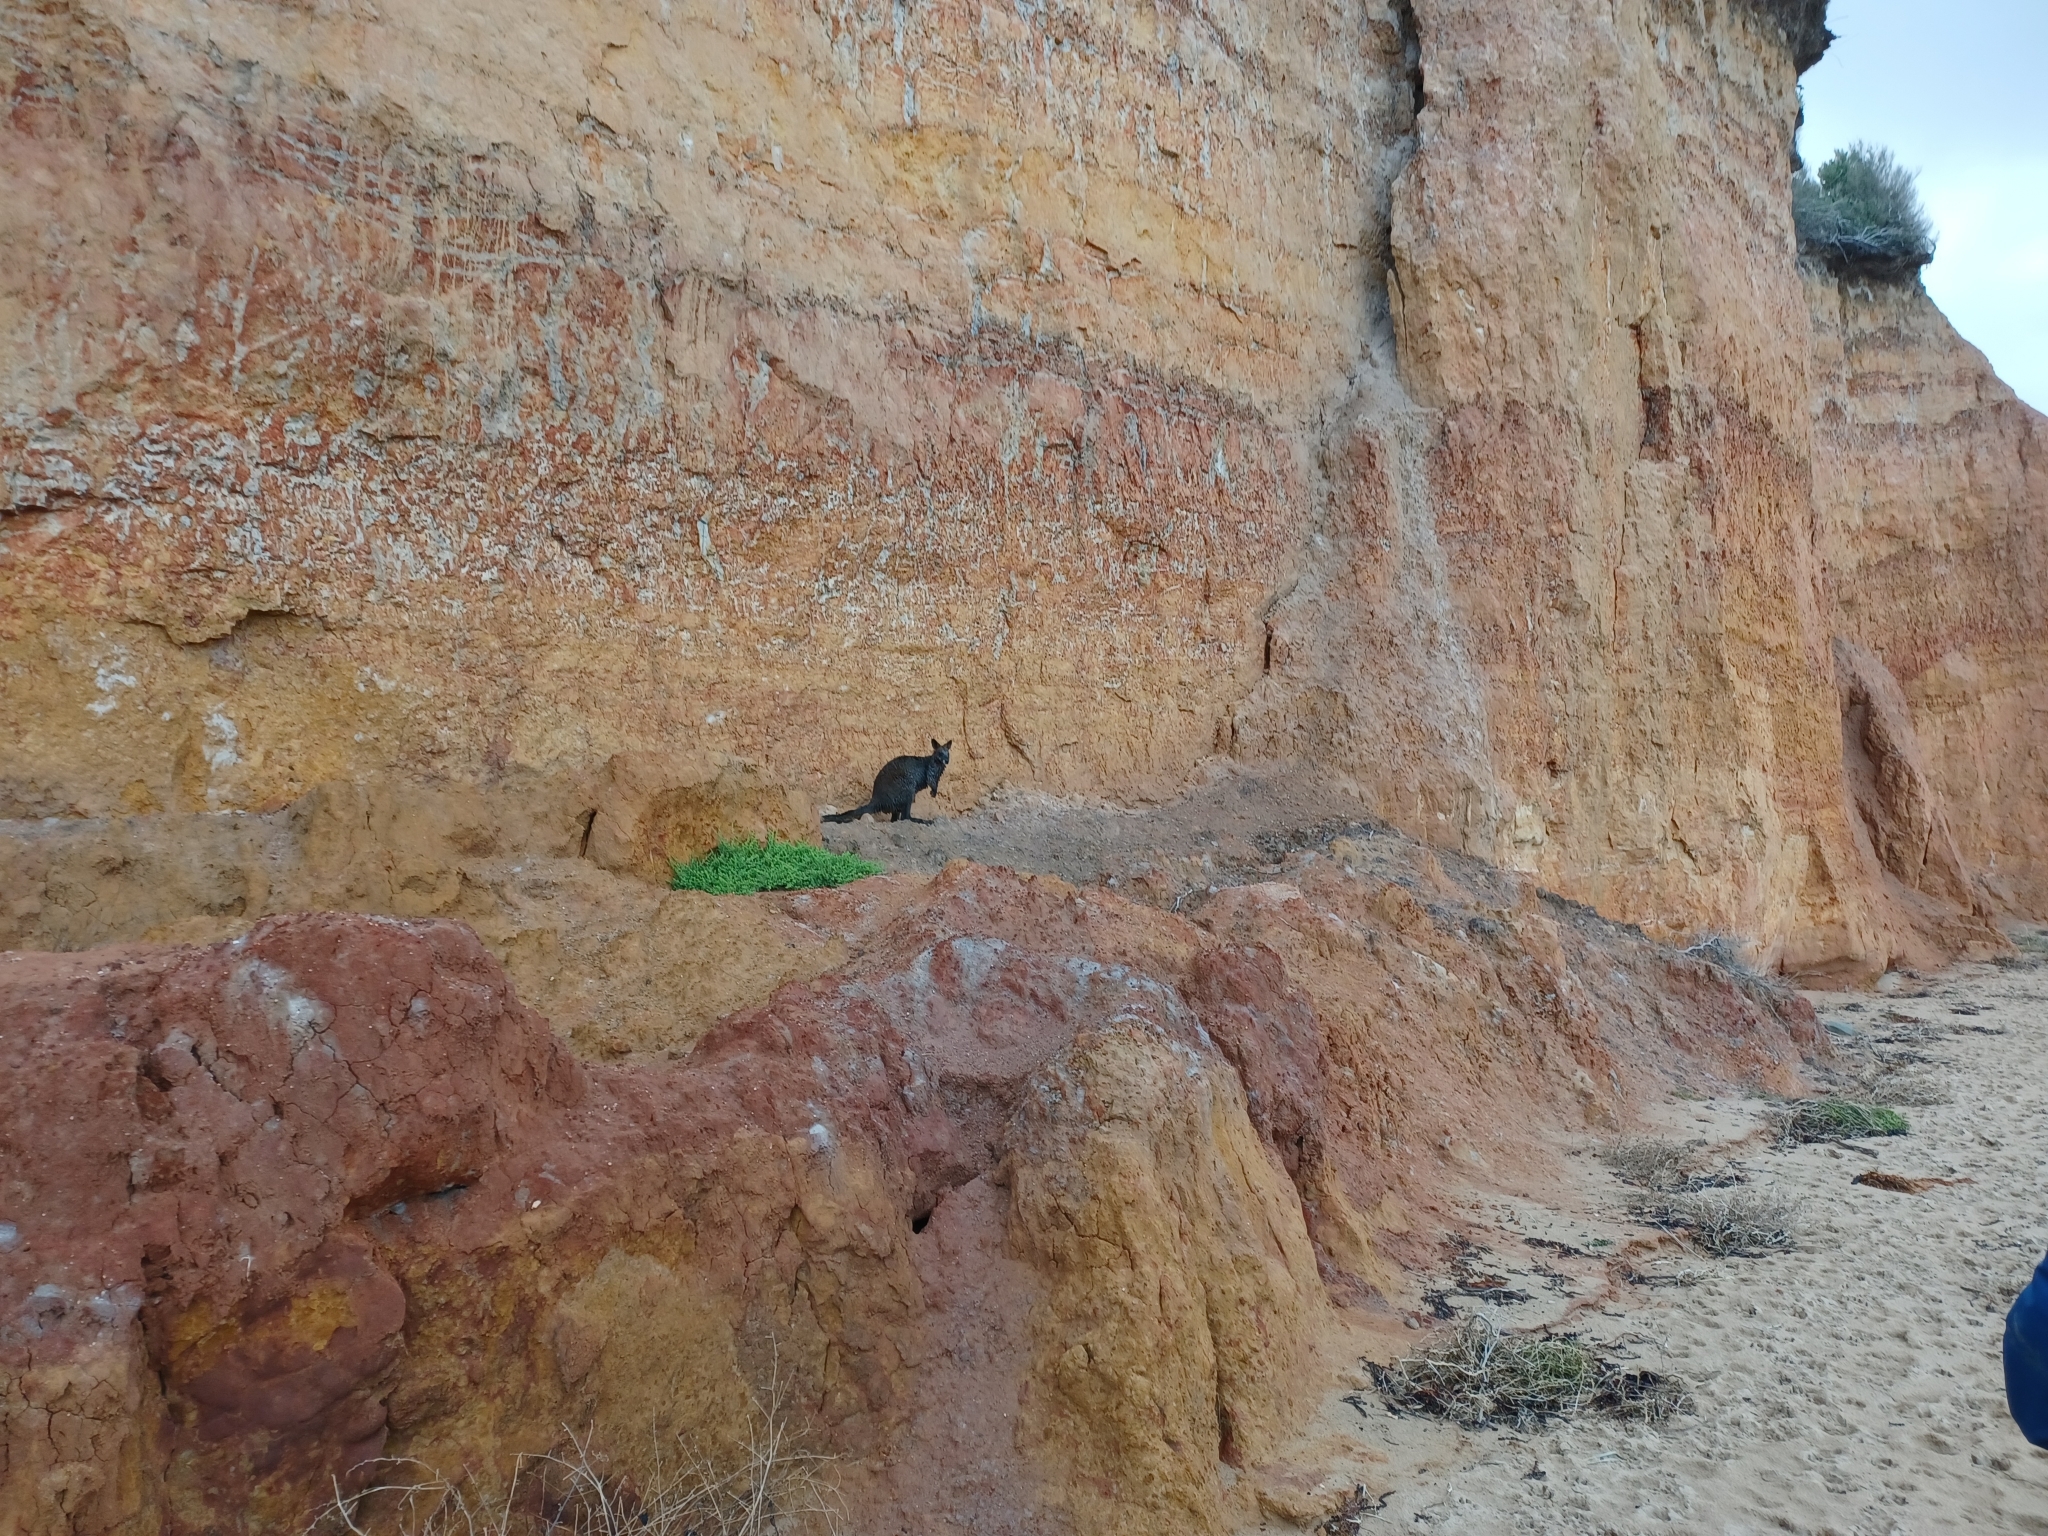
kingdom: Animalia
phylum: Chordata
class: Mammalia
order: Diprotodontia
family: Macropodidae
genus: Wallabia
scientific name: Wallabia bicolor
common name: Swamp wallaby
